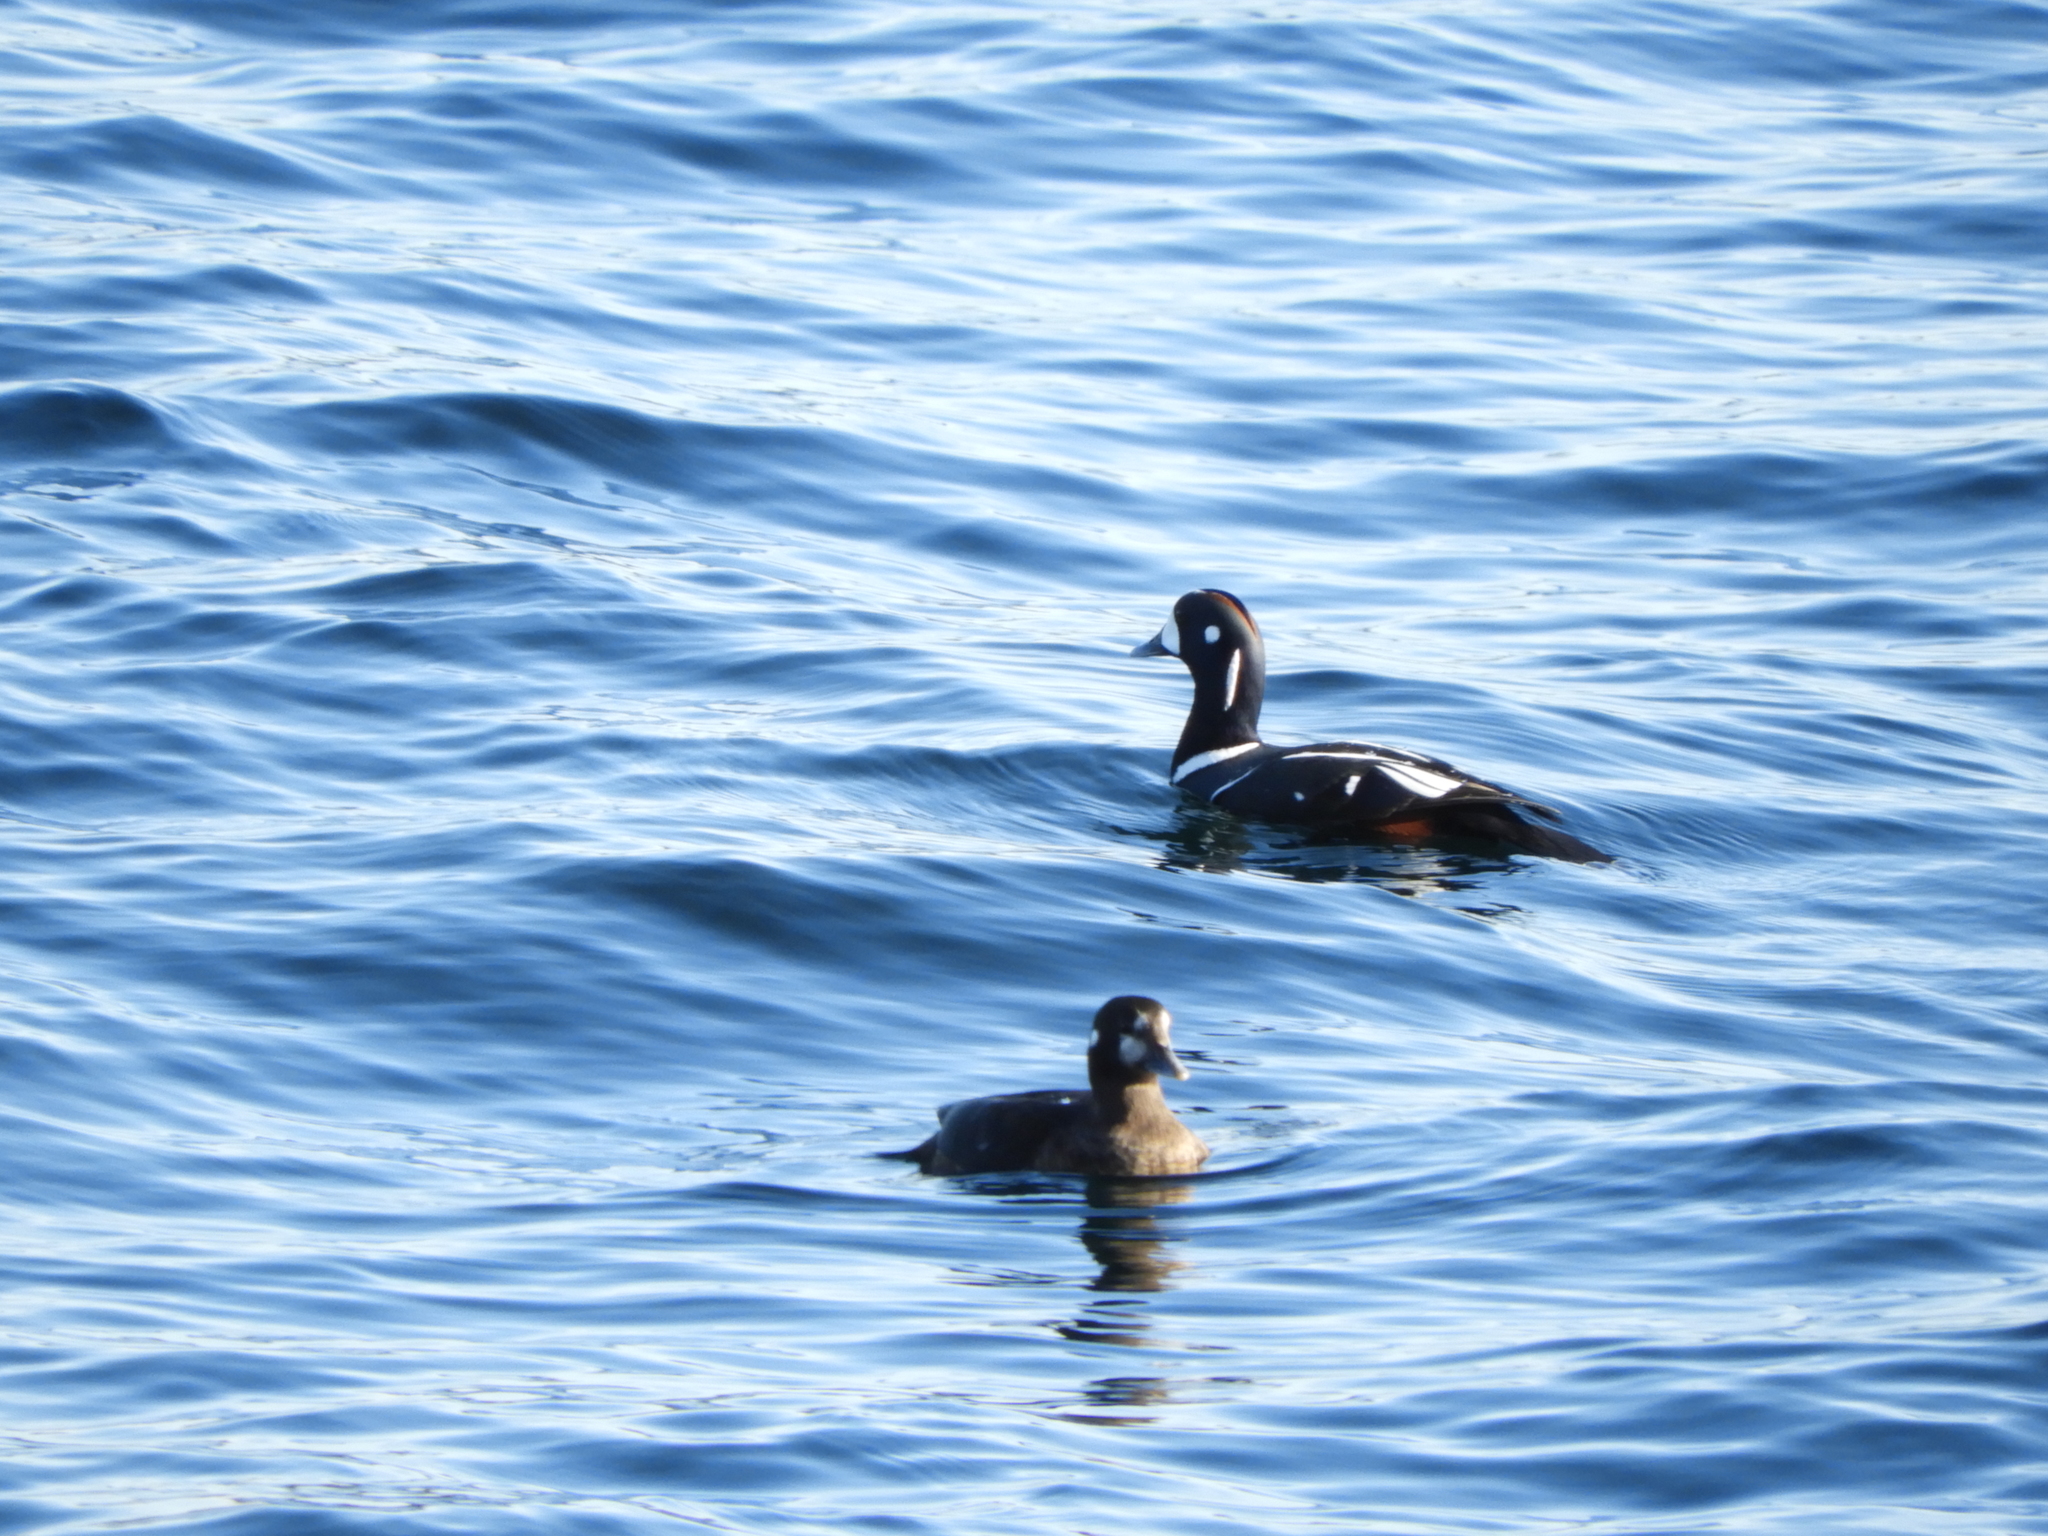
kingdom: Animalia
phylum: Chordata
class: Aves
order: Anseriformes
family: Anatidae
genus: Histrionicus
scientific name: Histrionicus histrionicus
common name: Harlequin duck
